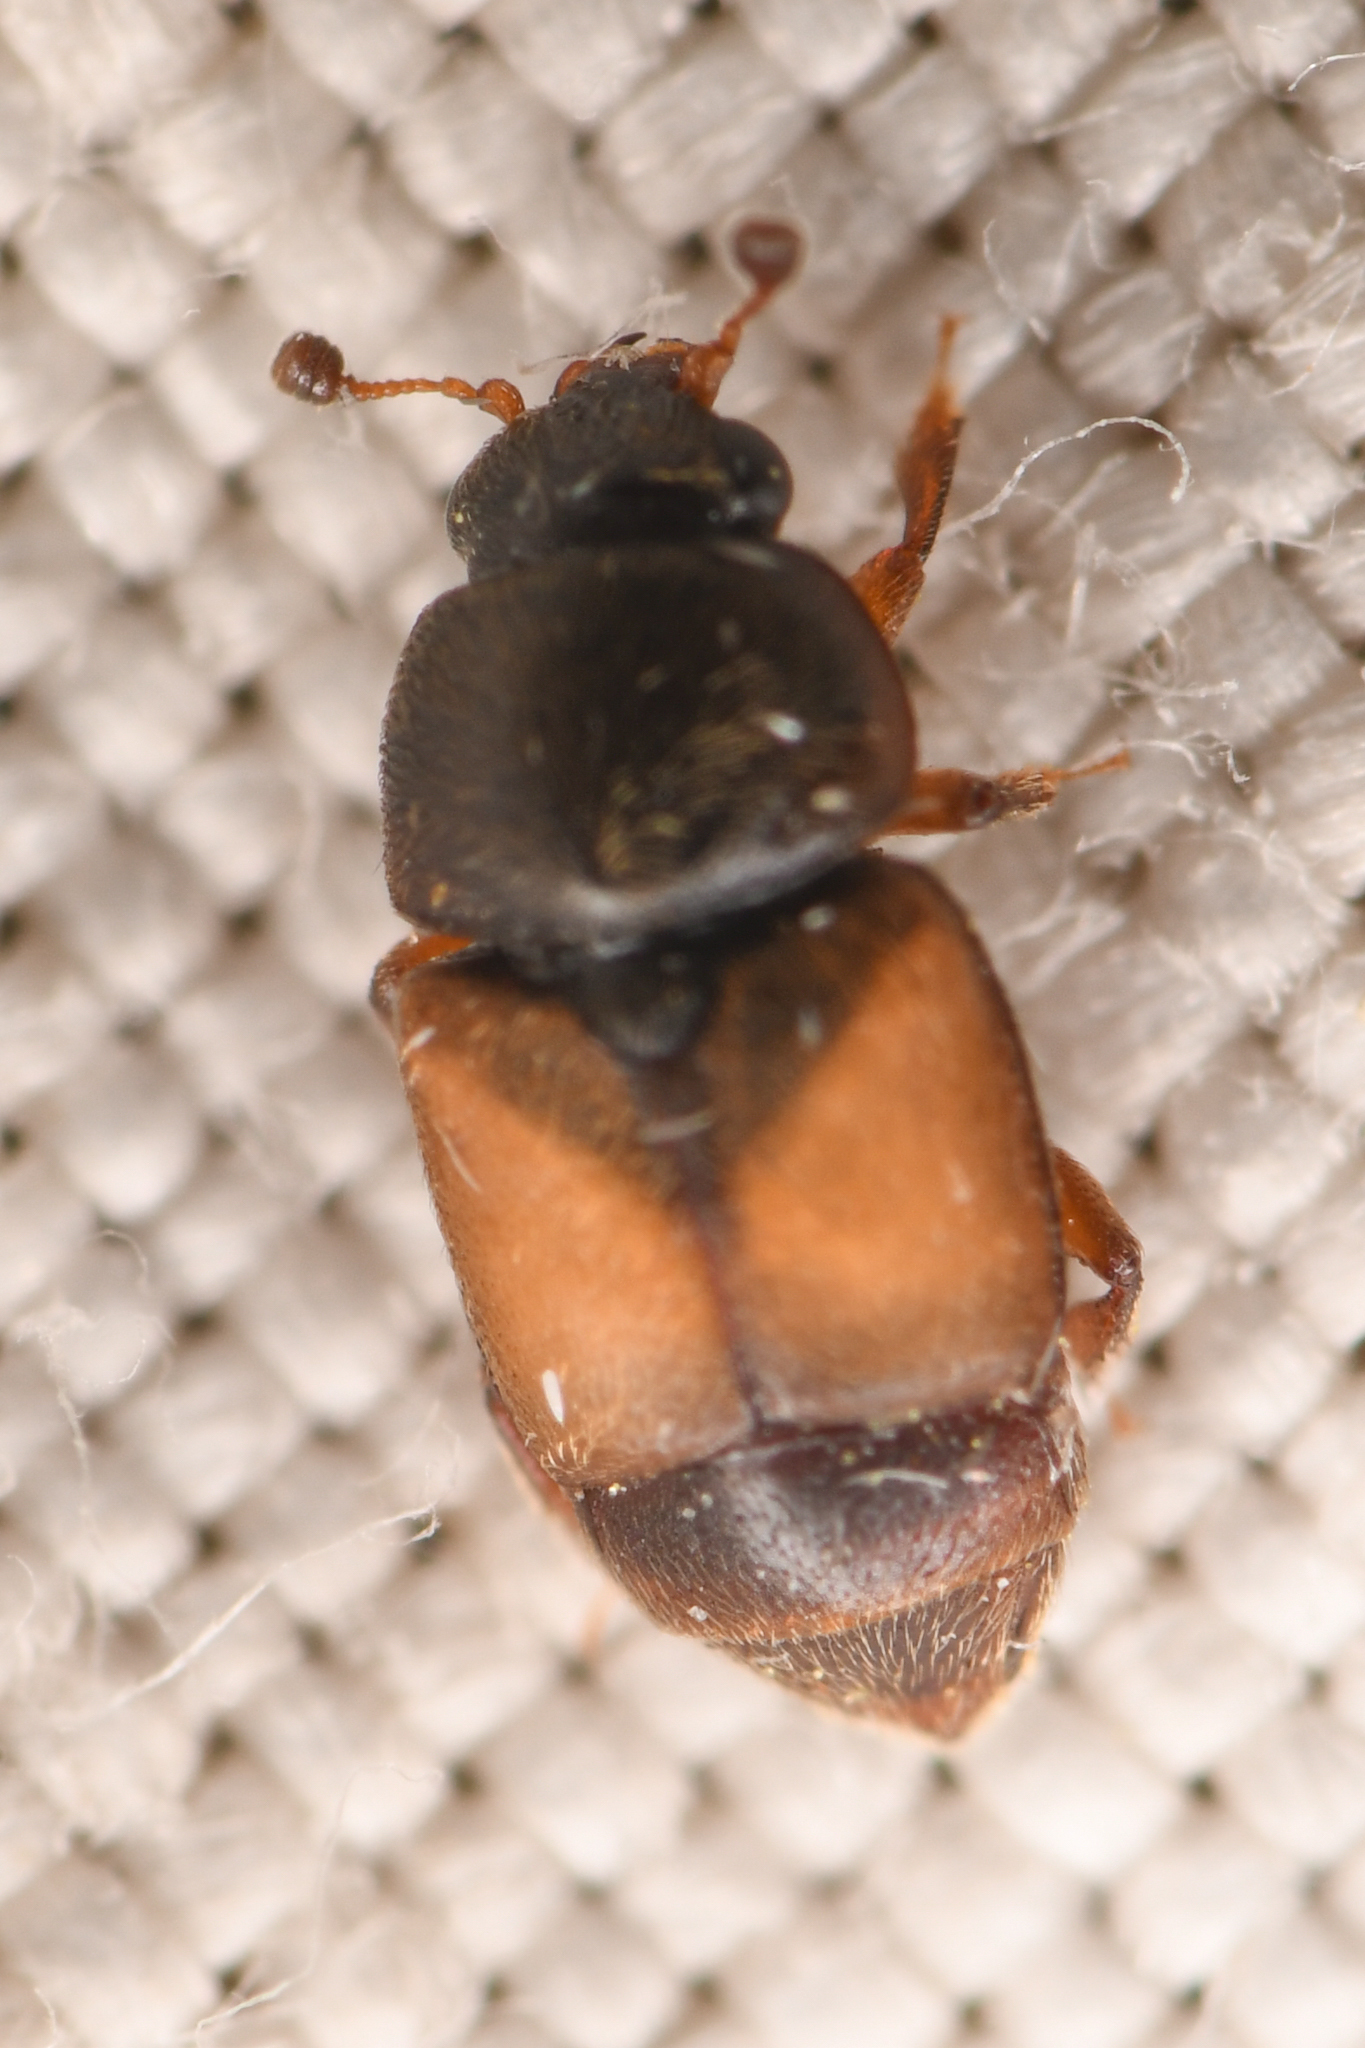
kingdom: Animalia
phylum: Arthropoda
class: Insecta
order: Coleoptera
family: Nitidulidae
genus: Nitops
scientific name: Nitops pallipennis
